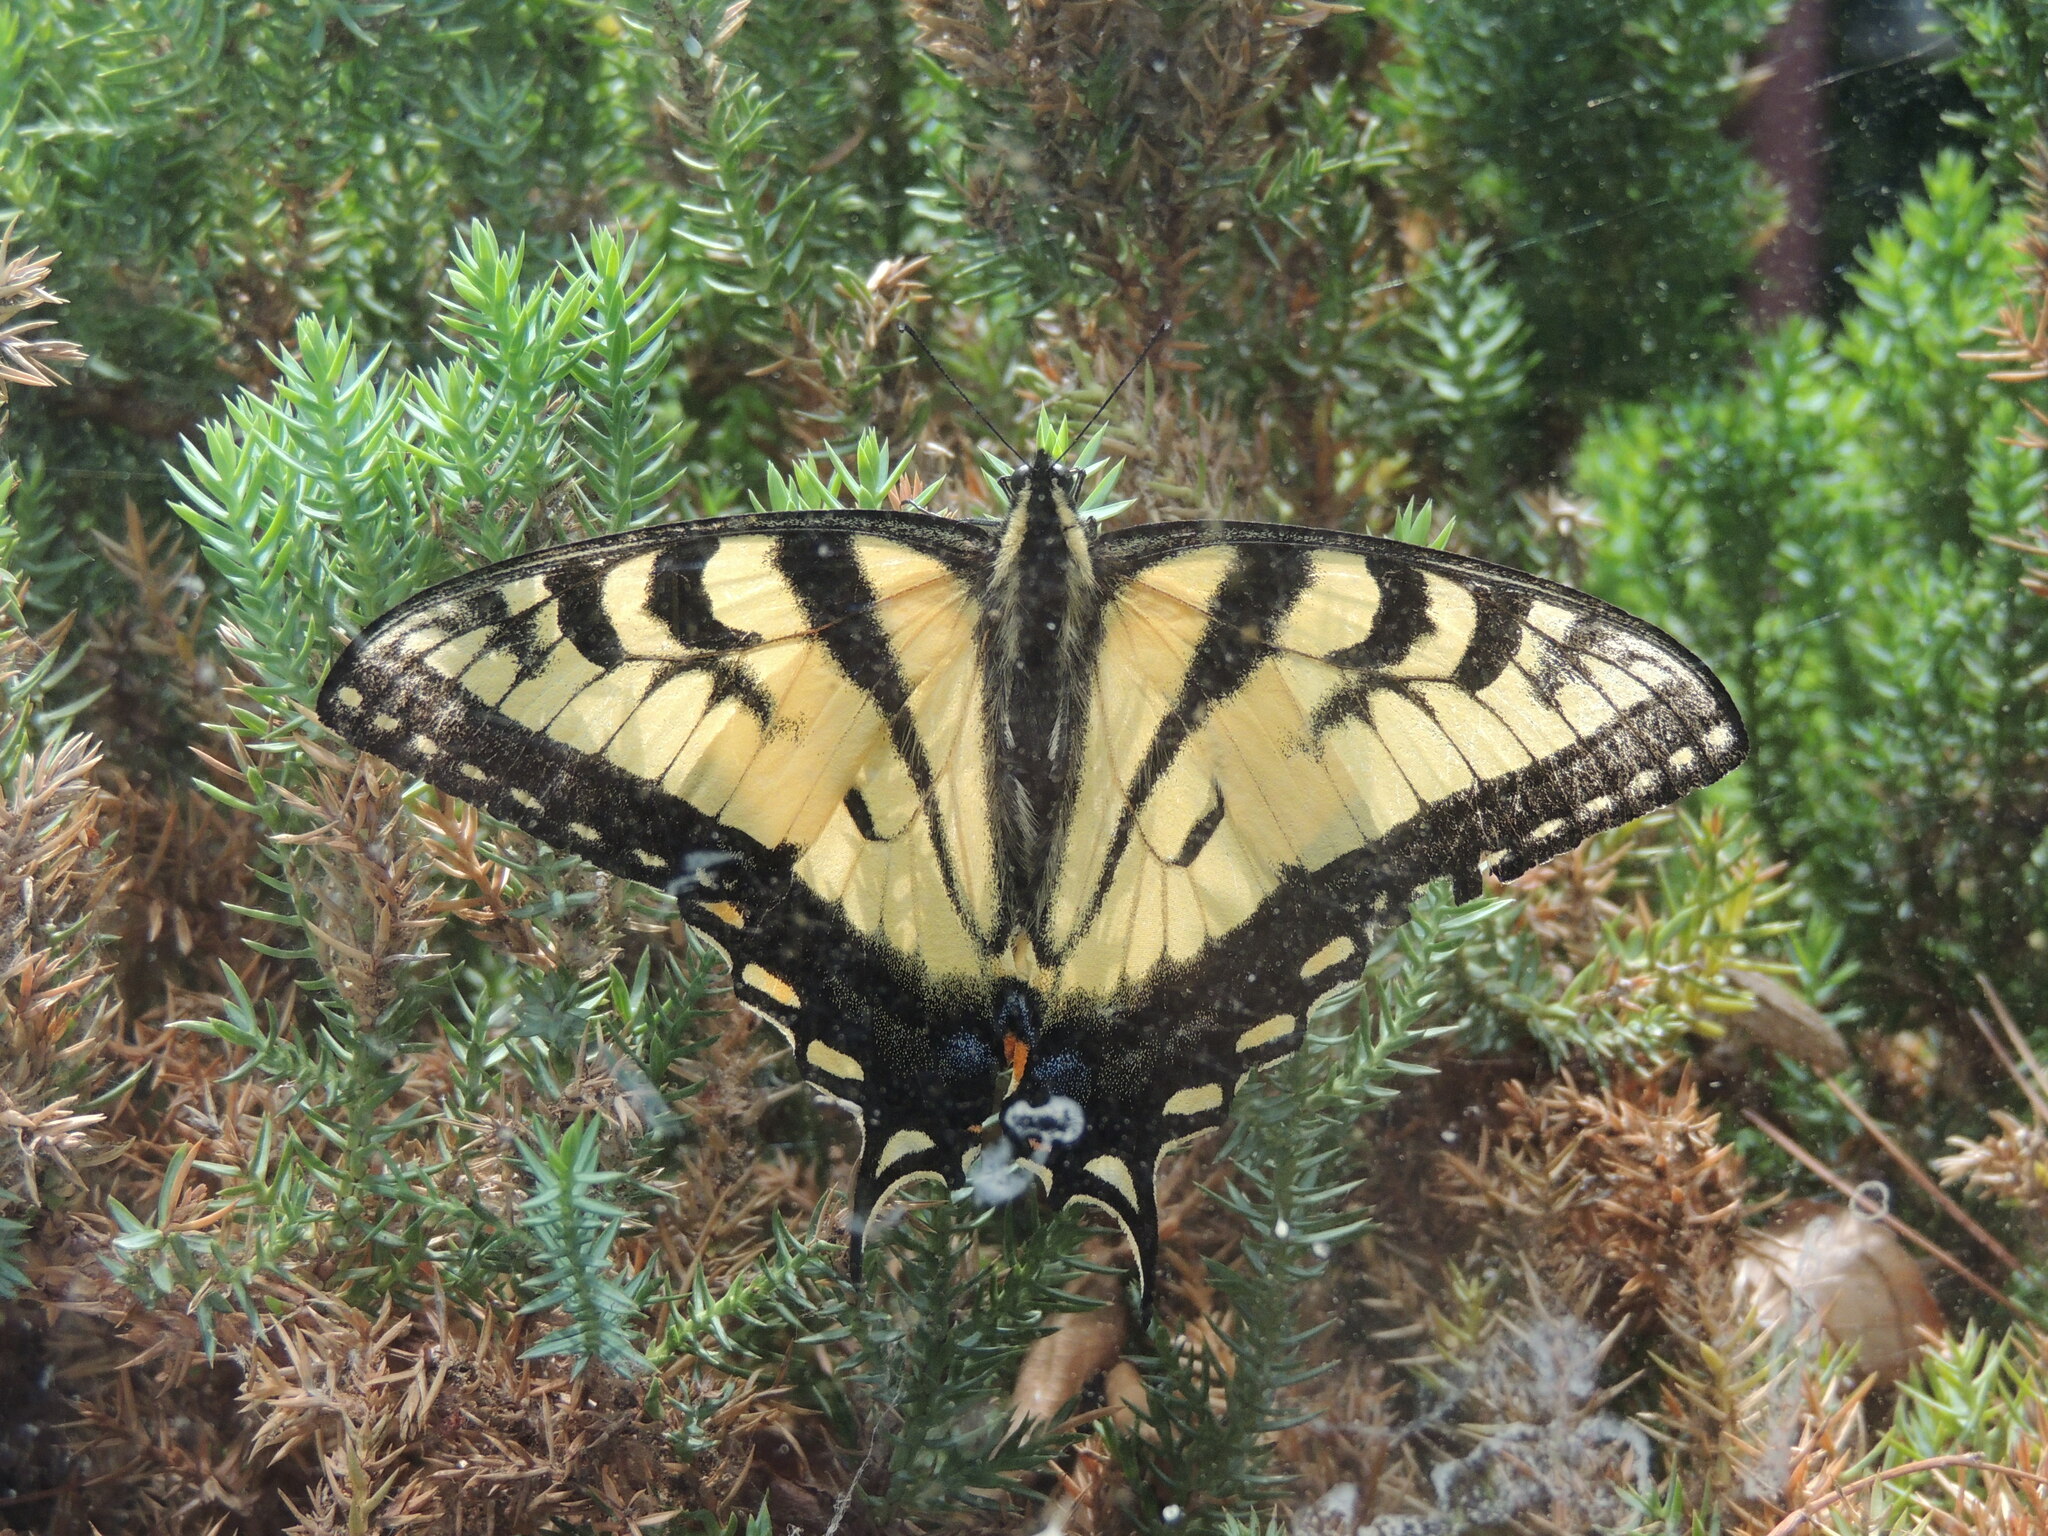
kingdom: Animalia
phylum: Arthropoda
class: Insecta
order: Lepidoptera
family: Papilionidae
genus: Papilio
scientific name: Papilio canadensis
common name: Canadian tiger swallowtail
